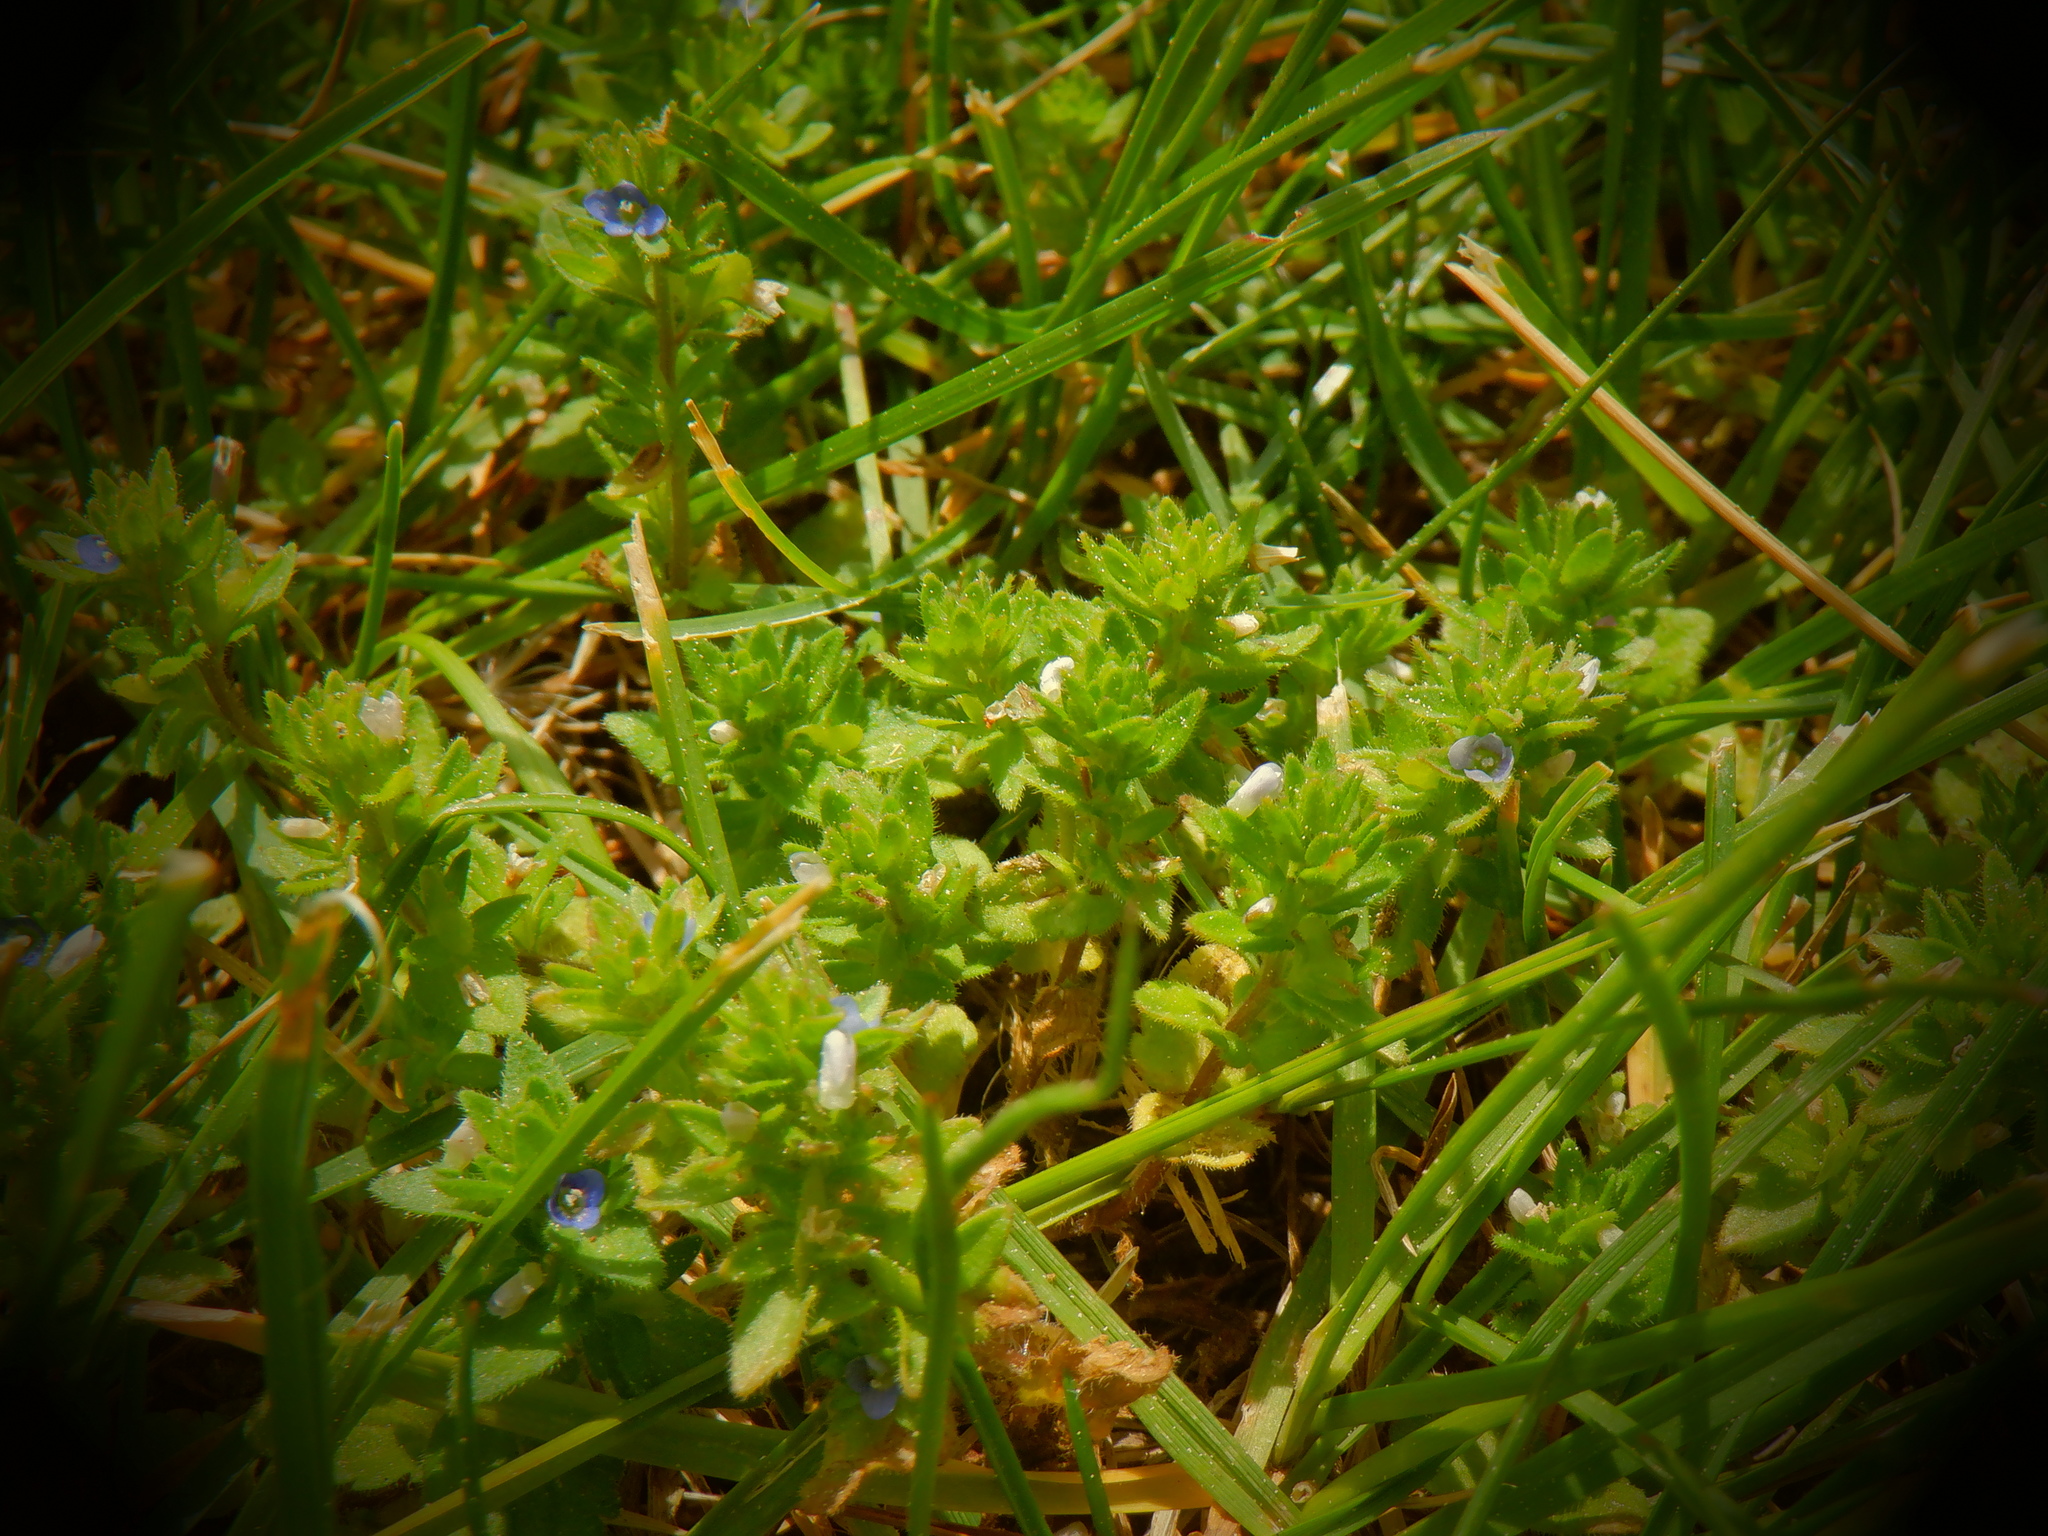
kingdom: Plantae
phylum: Tracheophyta
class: Magnoliopsida
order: Lamiales
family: Plantaginaceae
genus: Veronica
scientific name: Veronica arvensis
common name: Corn speedwell
